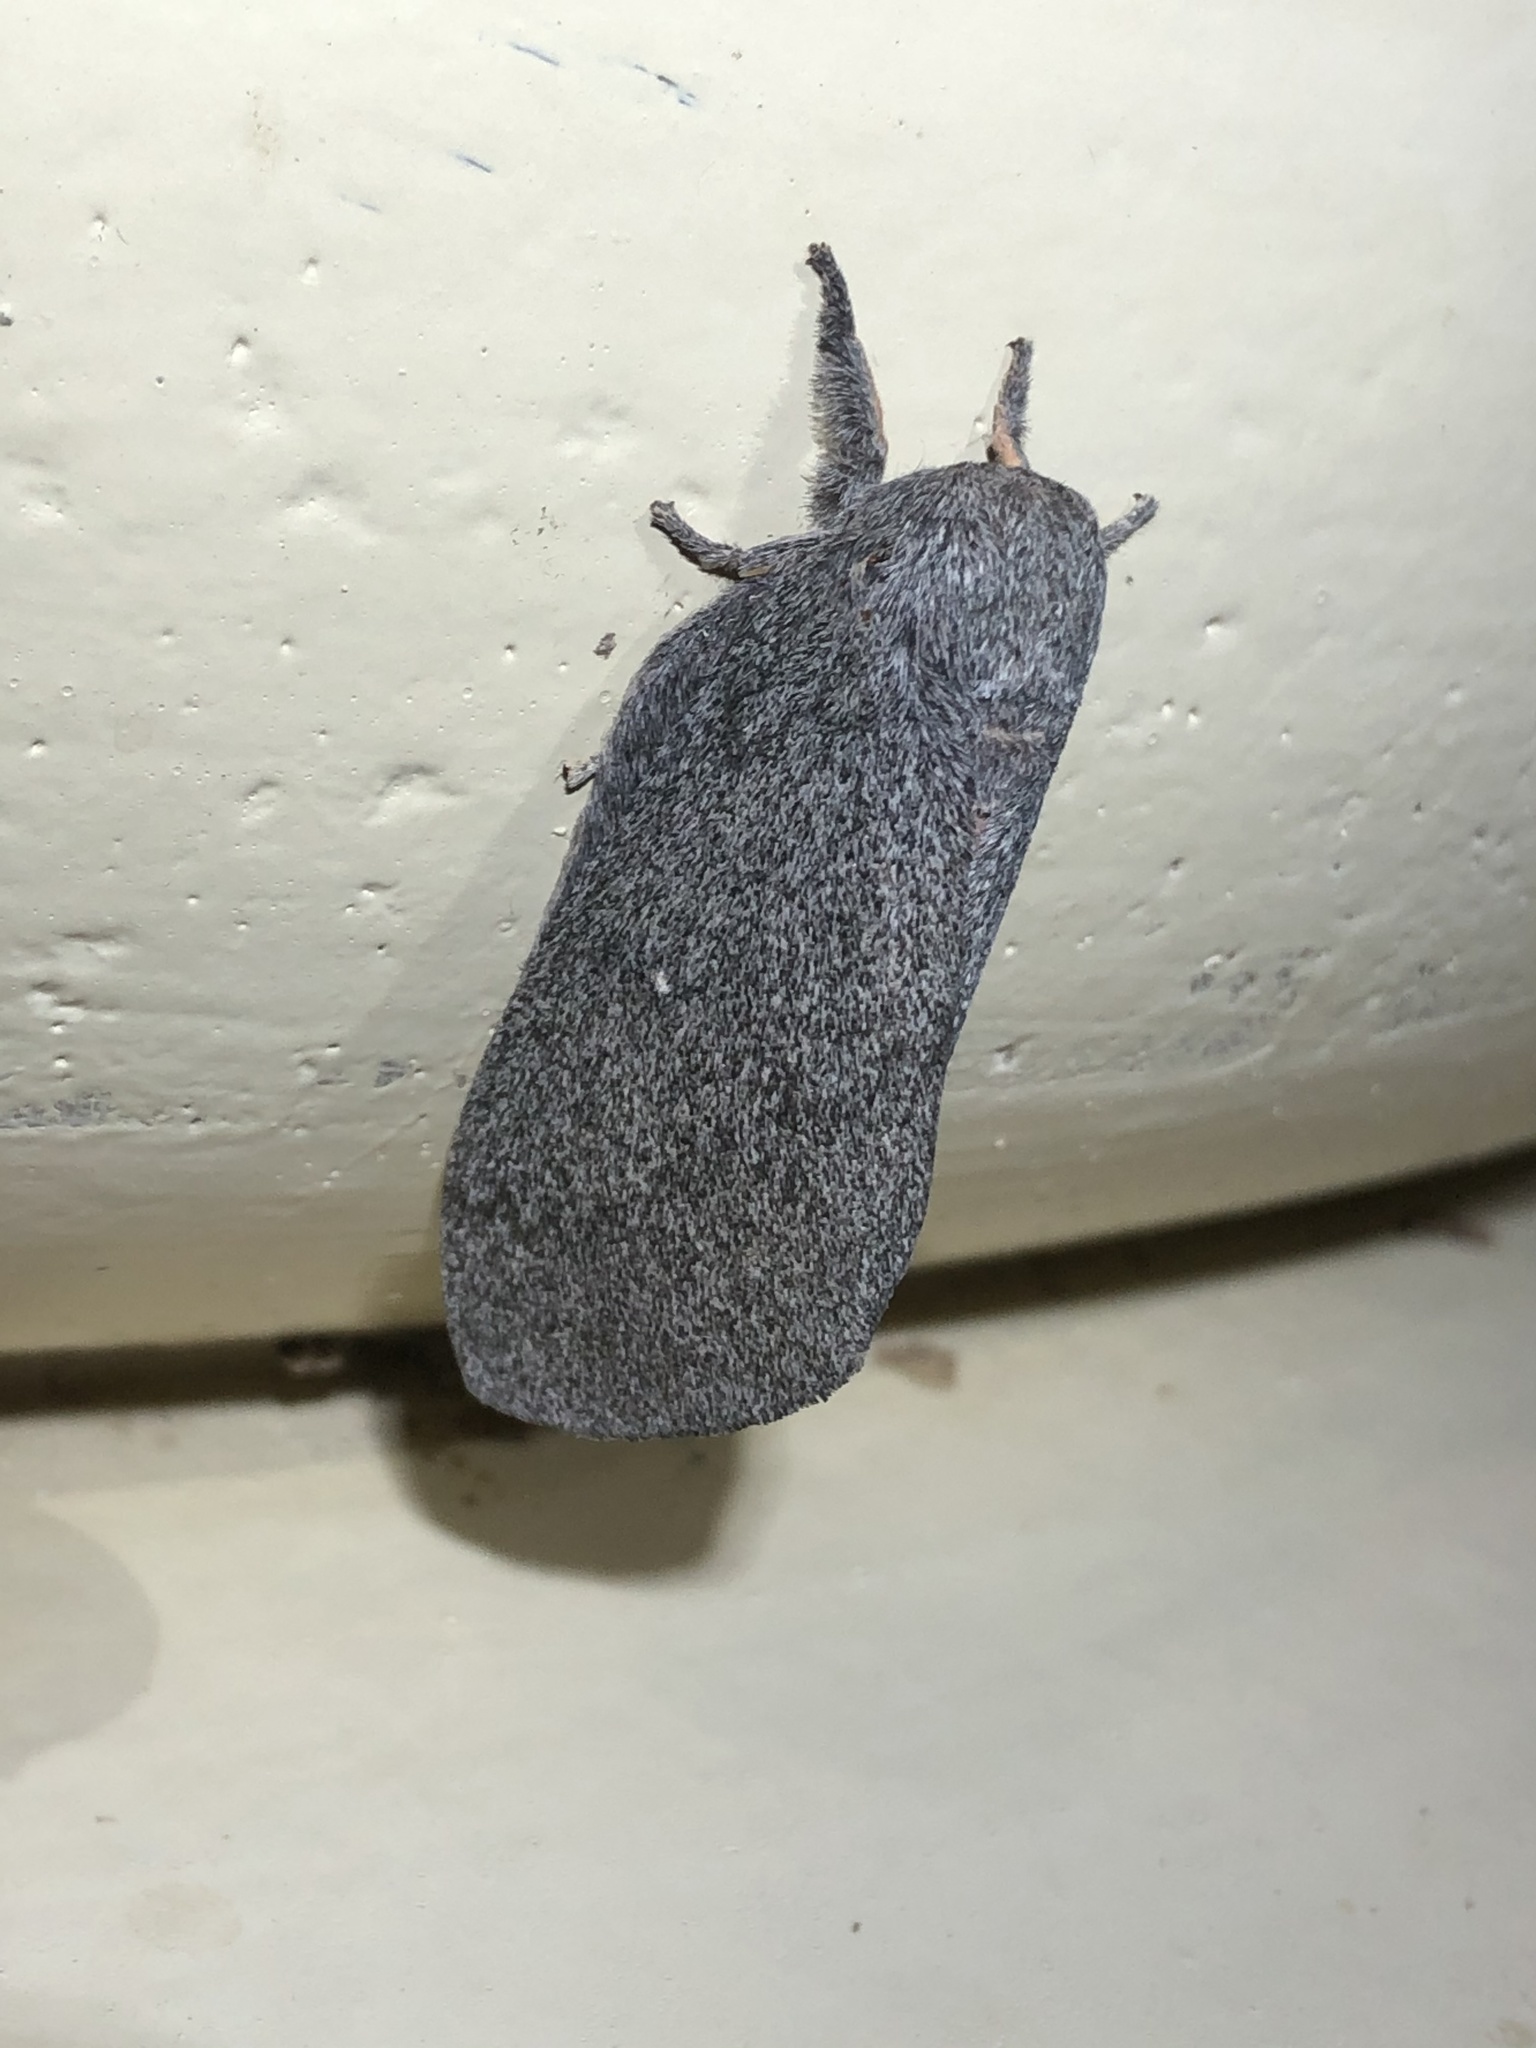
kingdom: Animalia
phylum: Arthropoda
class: Insecta
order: Lepidoptera
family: Saturniidae
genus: Syssphinx
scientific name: Syssphinx hubbardi
